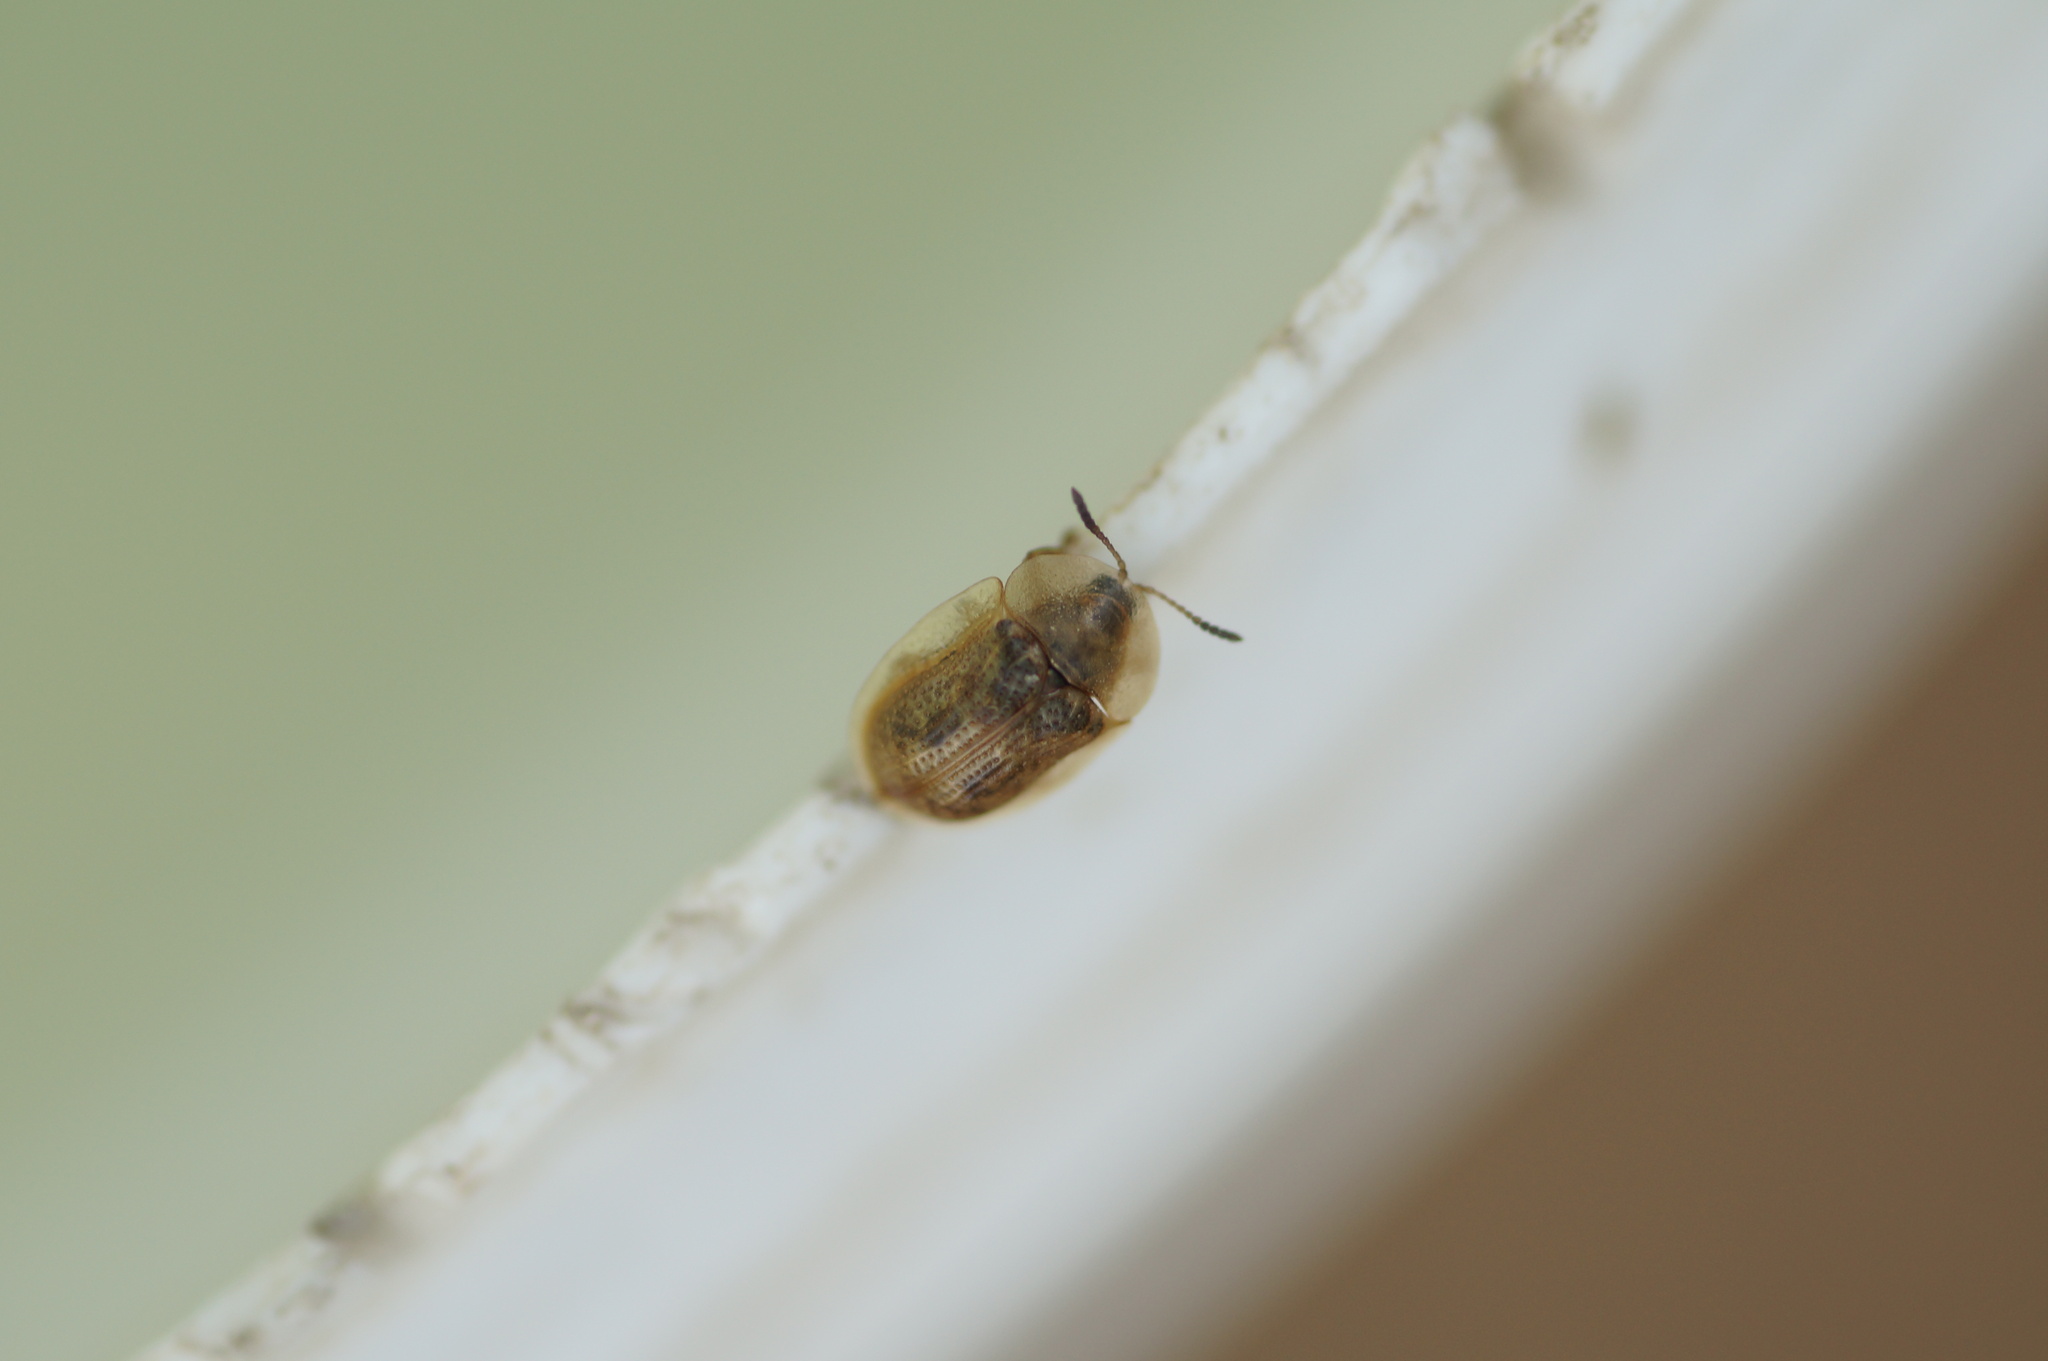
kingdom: Animalia
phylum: Arthropoda
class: Insecta
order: Coleoptera
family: Chrysomelidae
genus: Cassida
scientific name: Cassida flaveola
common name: Pale tortoise beetle
